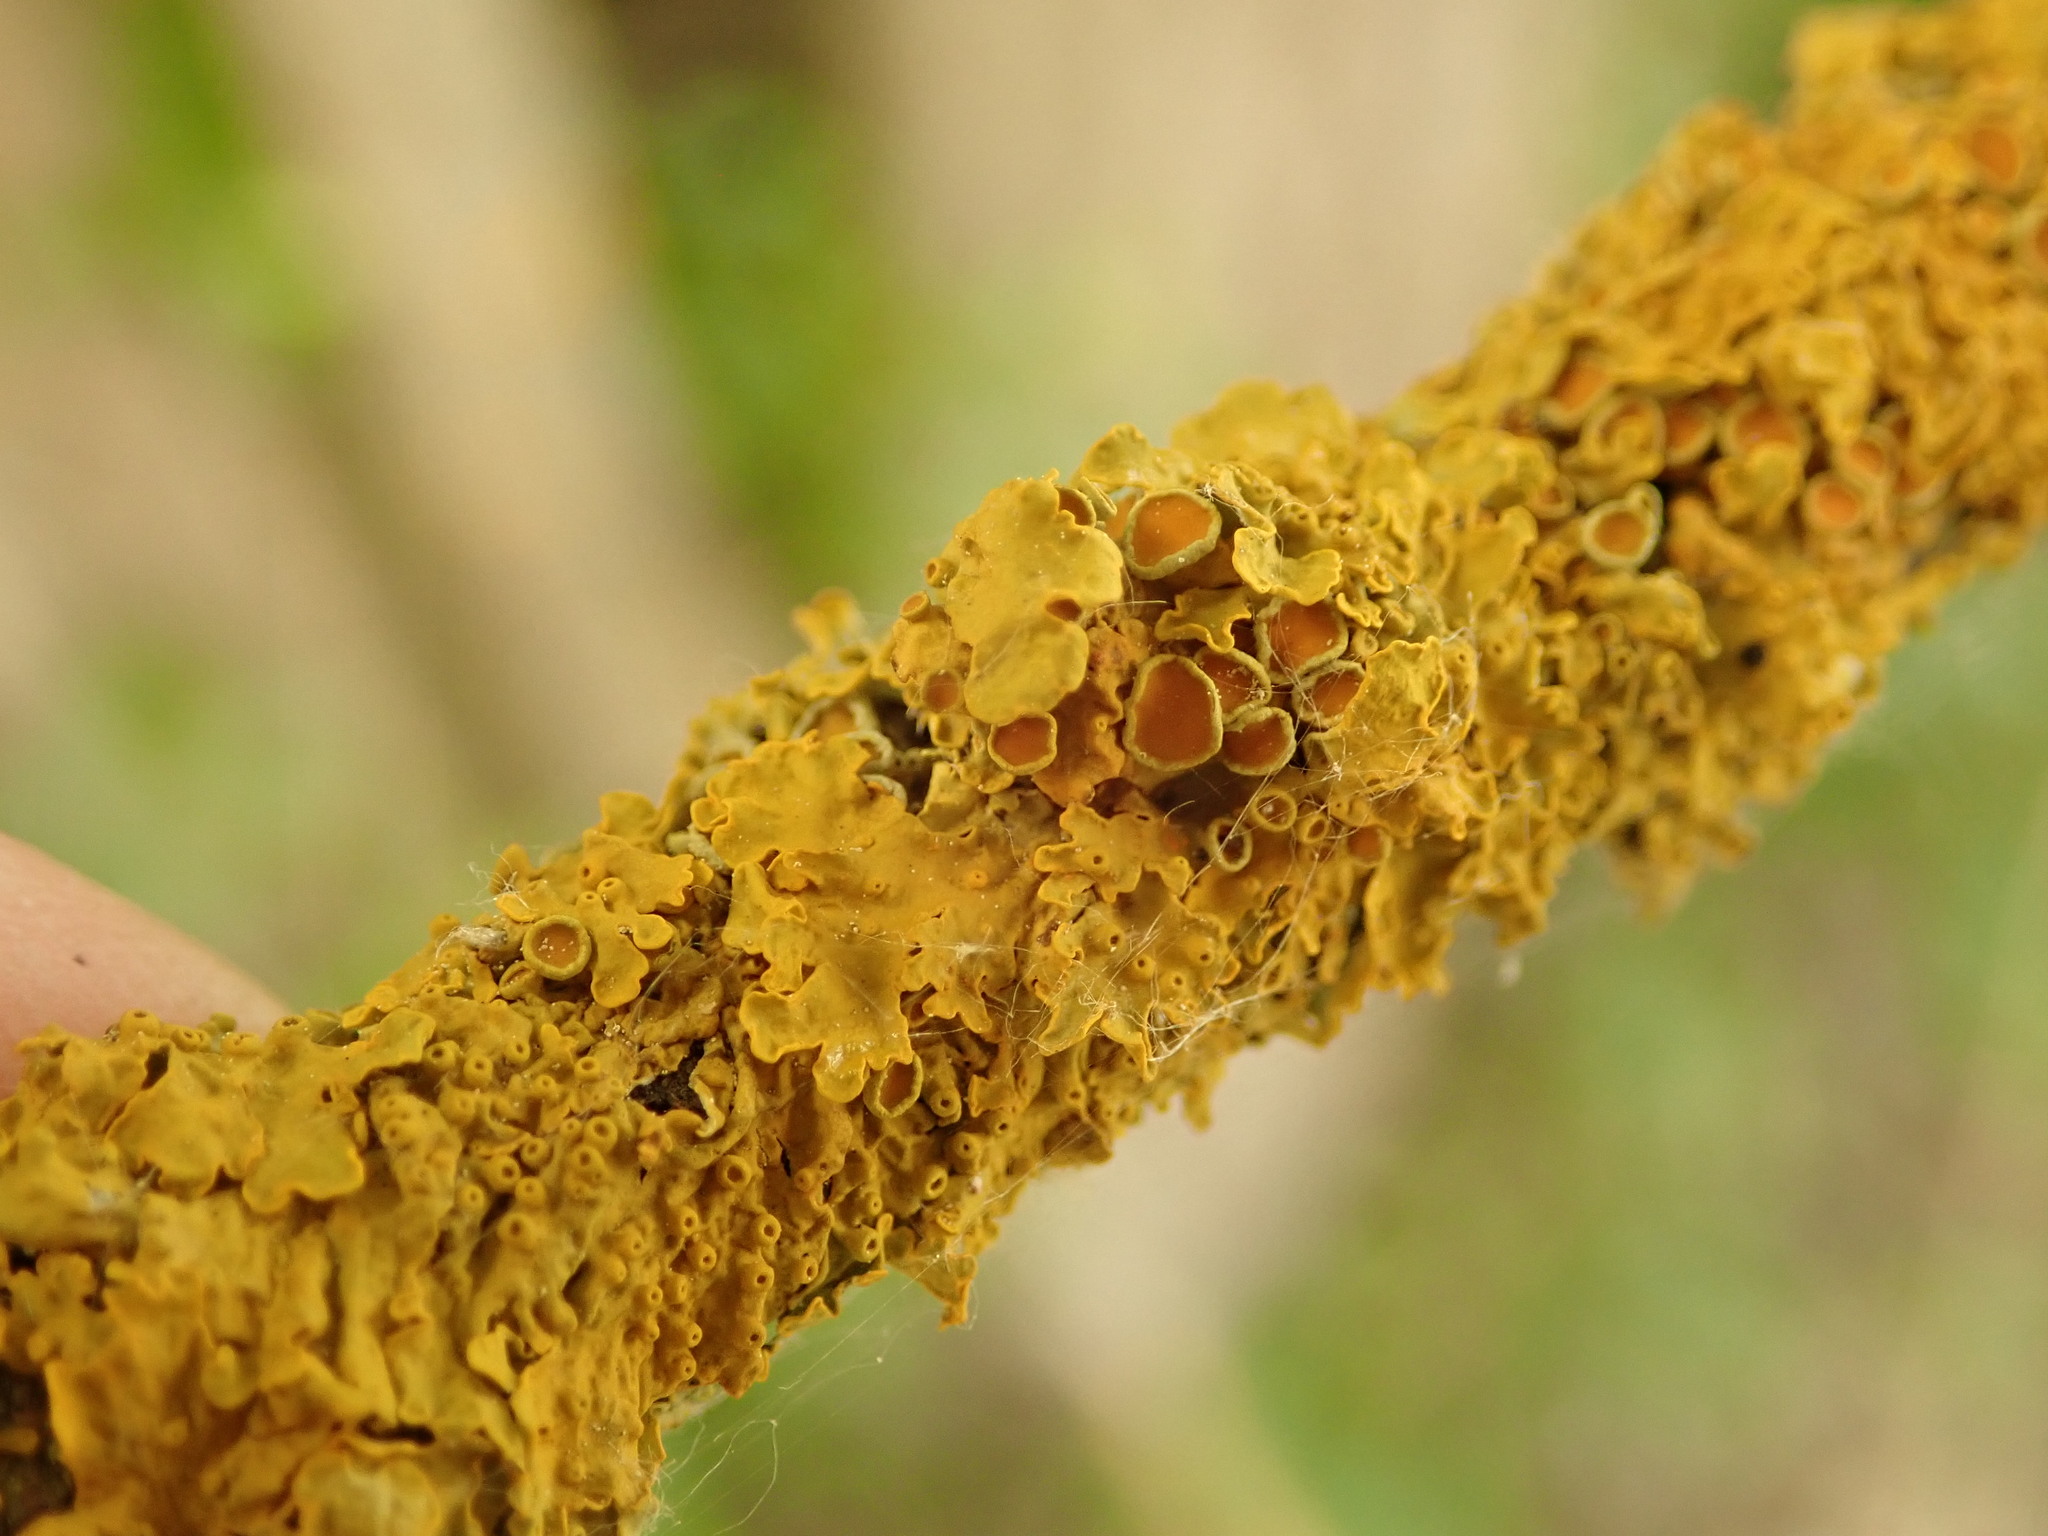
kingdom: Fungi
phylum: Ascomycota
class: Lecanoromycetes
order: Teloschistales
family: Teloschistaceae
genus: Xanthoria
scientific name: Xanthoria parietina
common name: Common orange lichen
